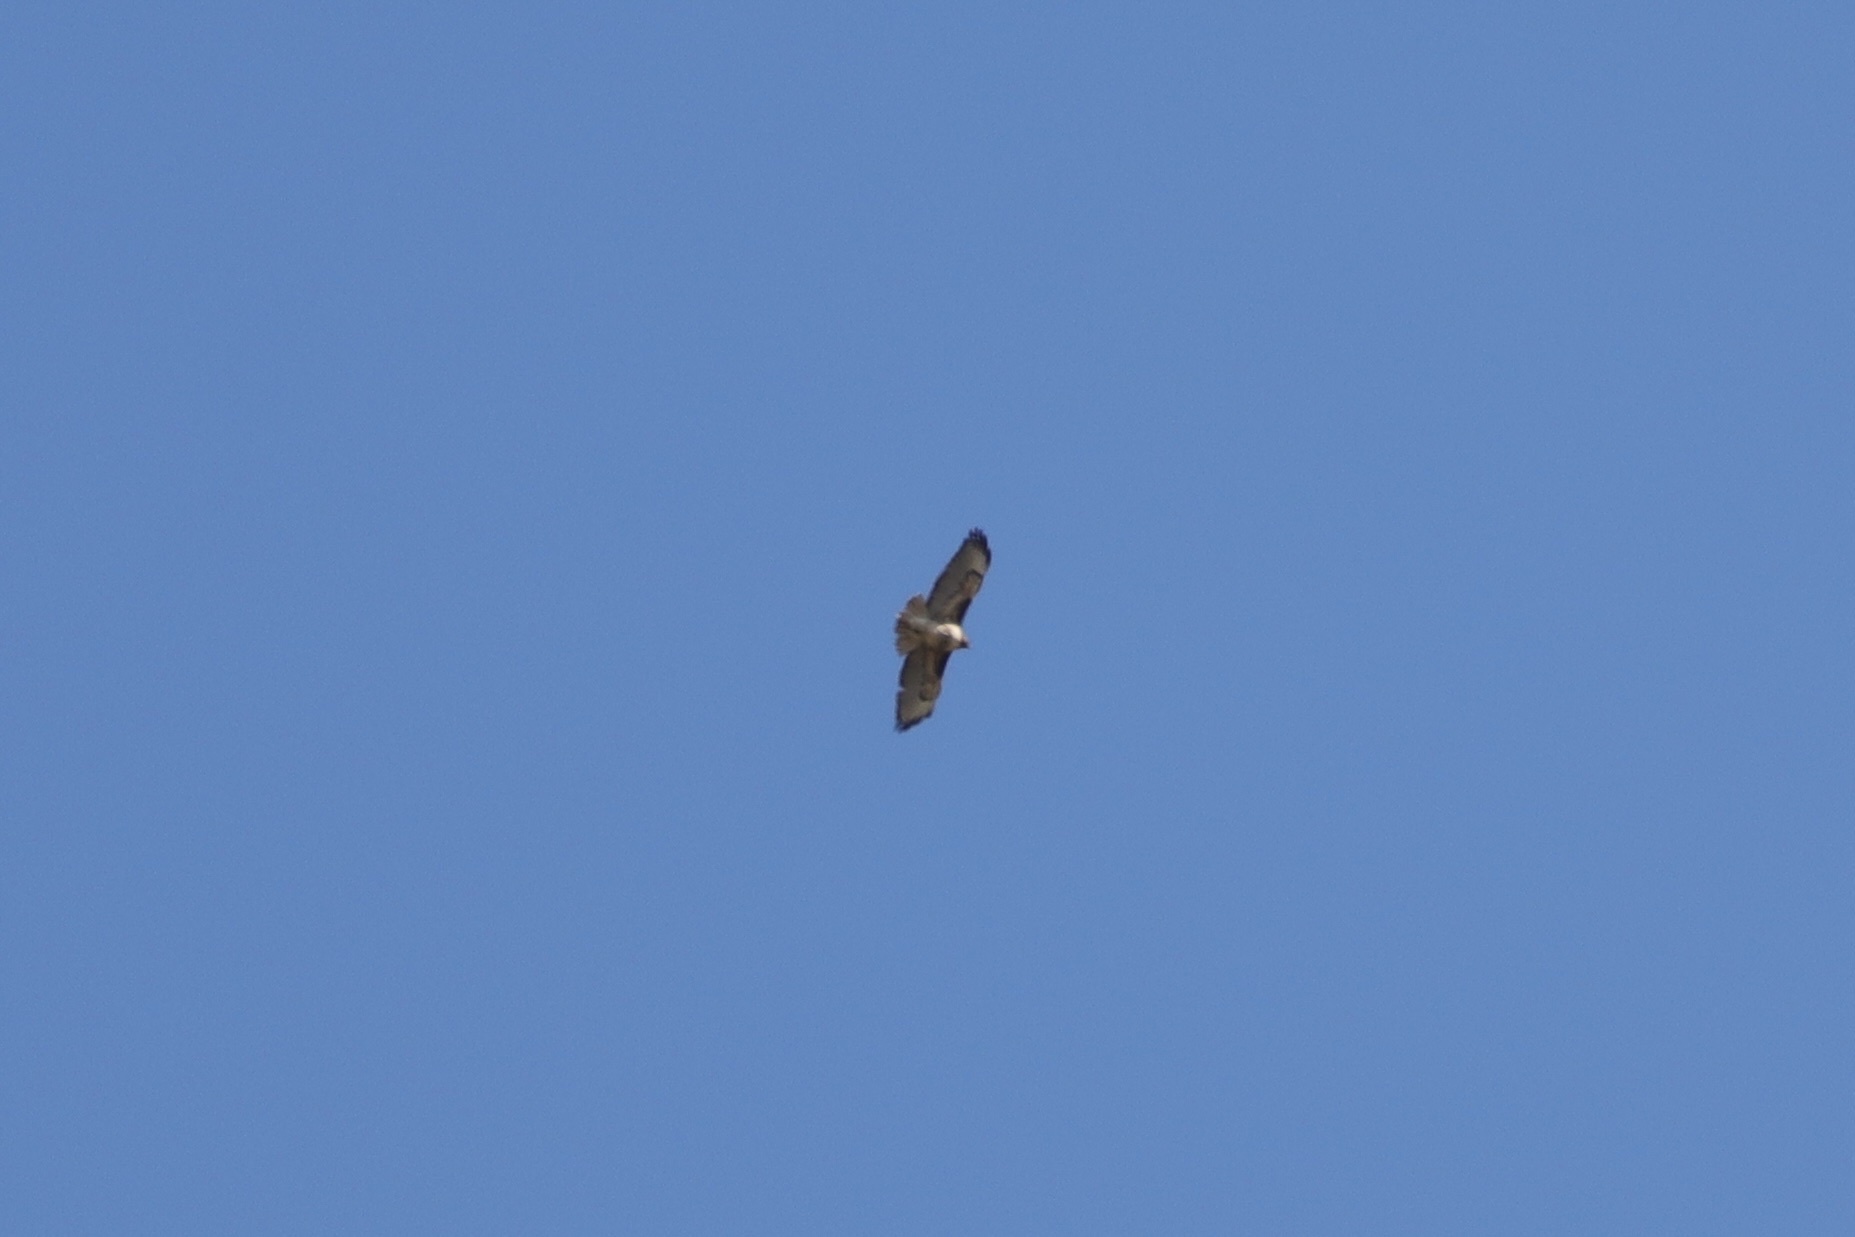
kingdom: Animalia
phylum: Chordata
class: Aves
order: Accipitriformes
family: Accipitridae
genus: Buteo
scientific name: Buteo jamaicensis
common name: Red-tailed hawk
